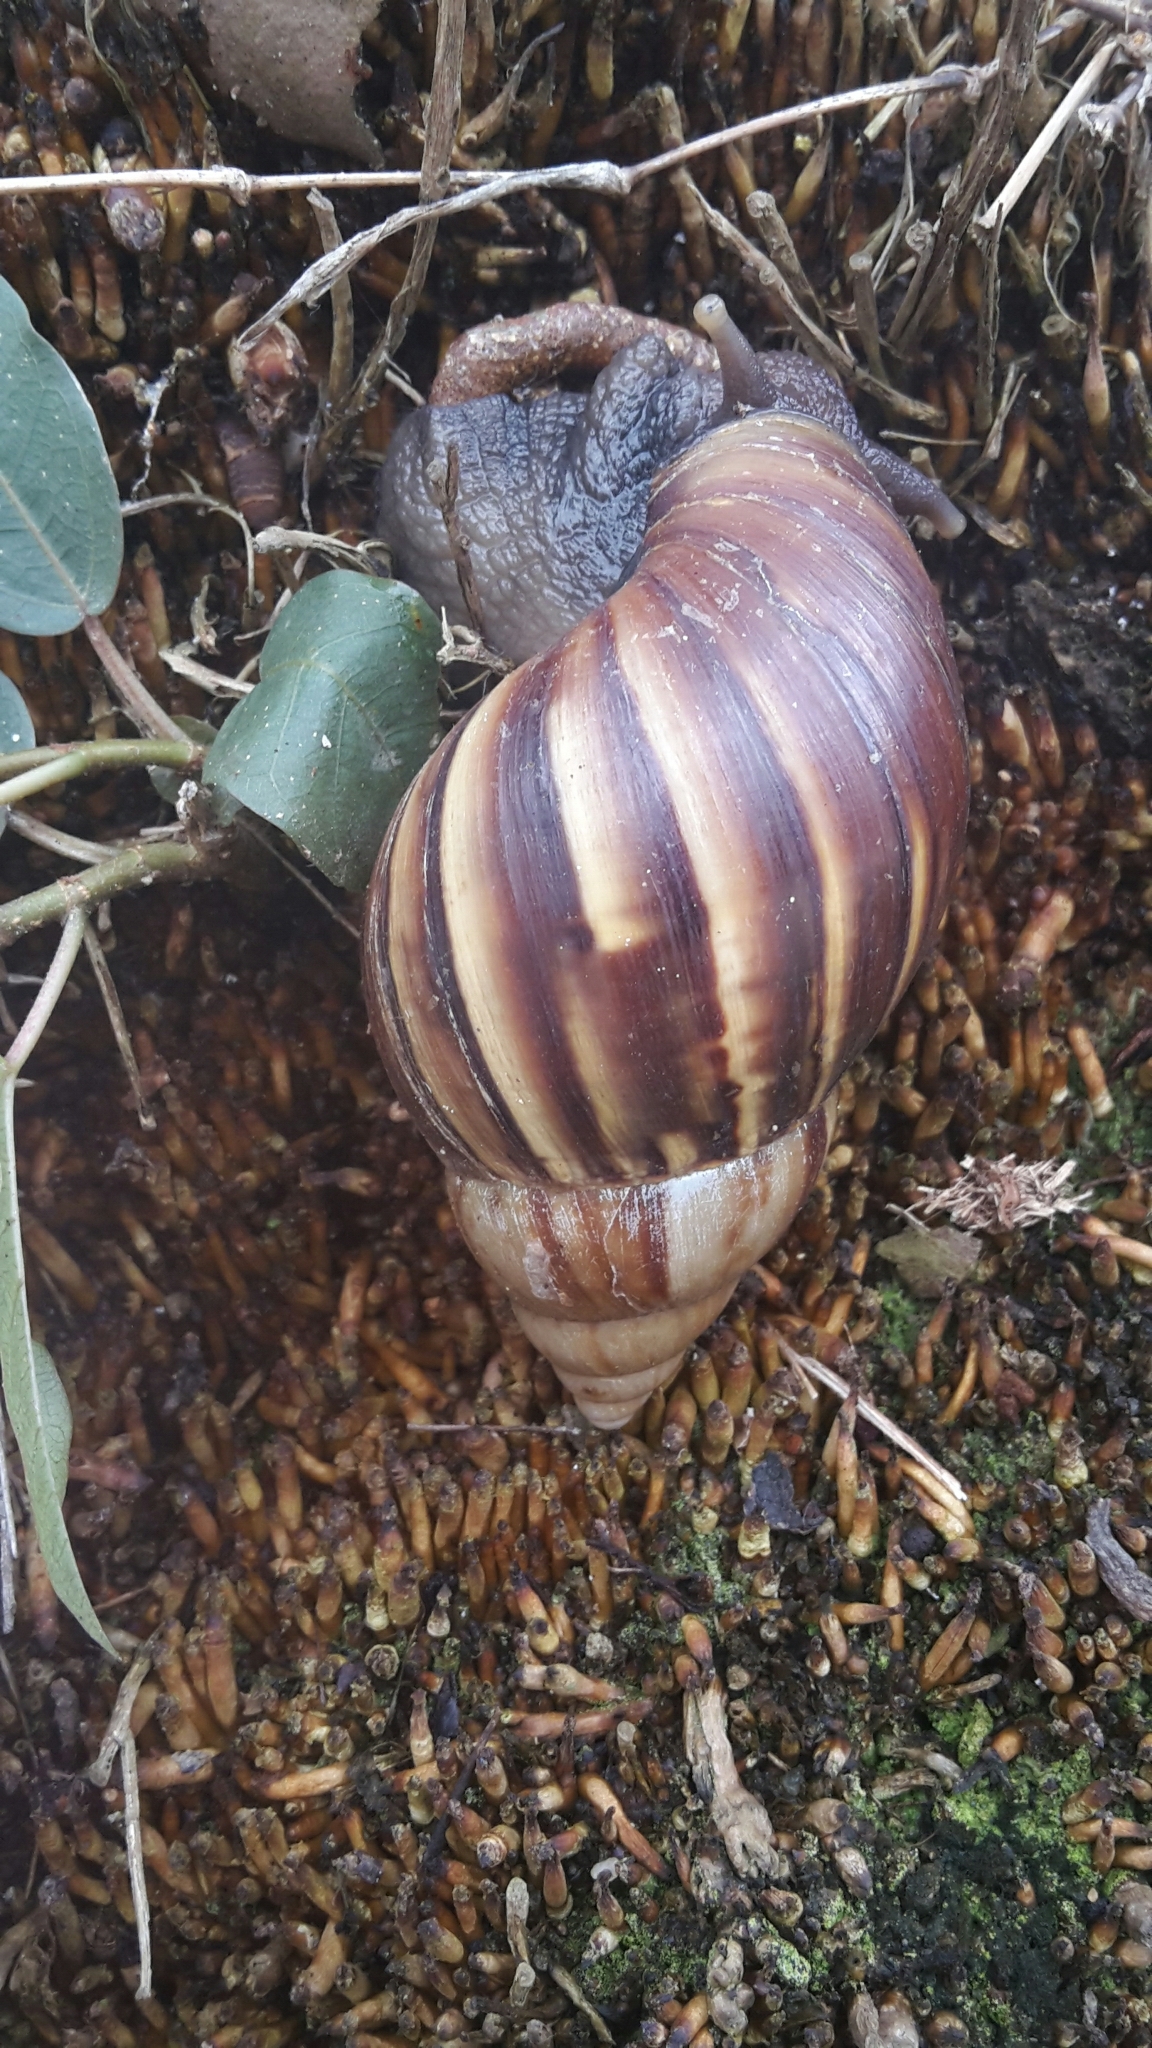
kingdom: Animalia
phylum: Mollusca
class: Gastropoda
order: Stylommatophora
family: Achatinidae
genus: Lissachatina
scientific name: Lissachatina fulica
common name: Giant african snail
